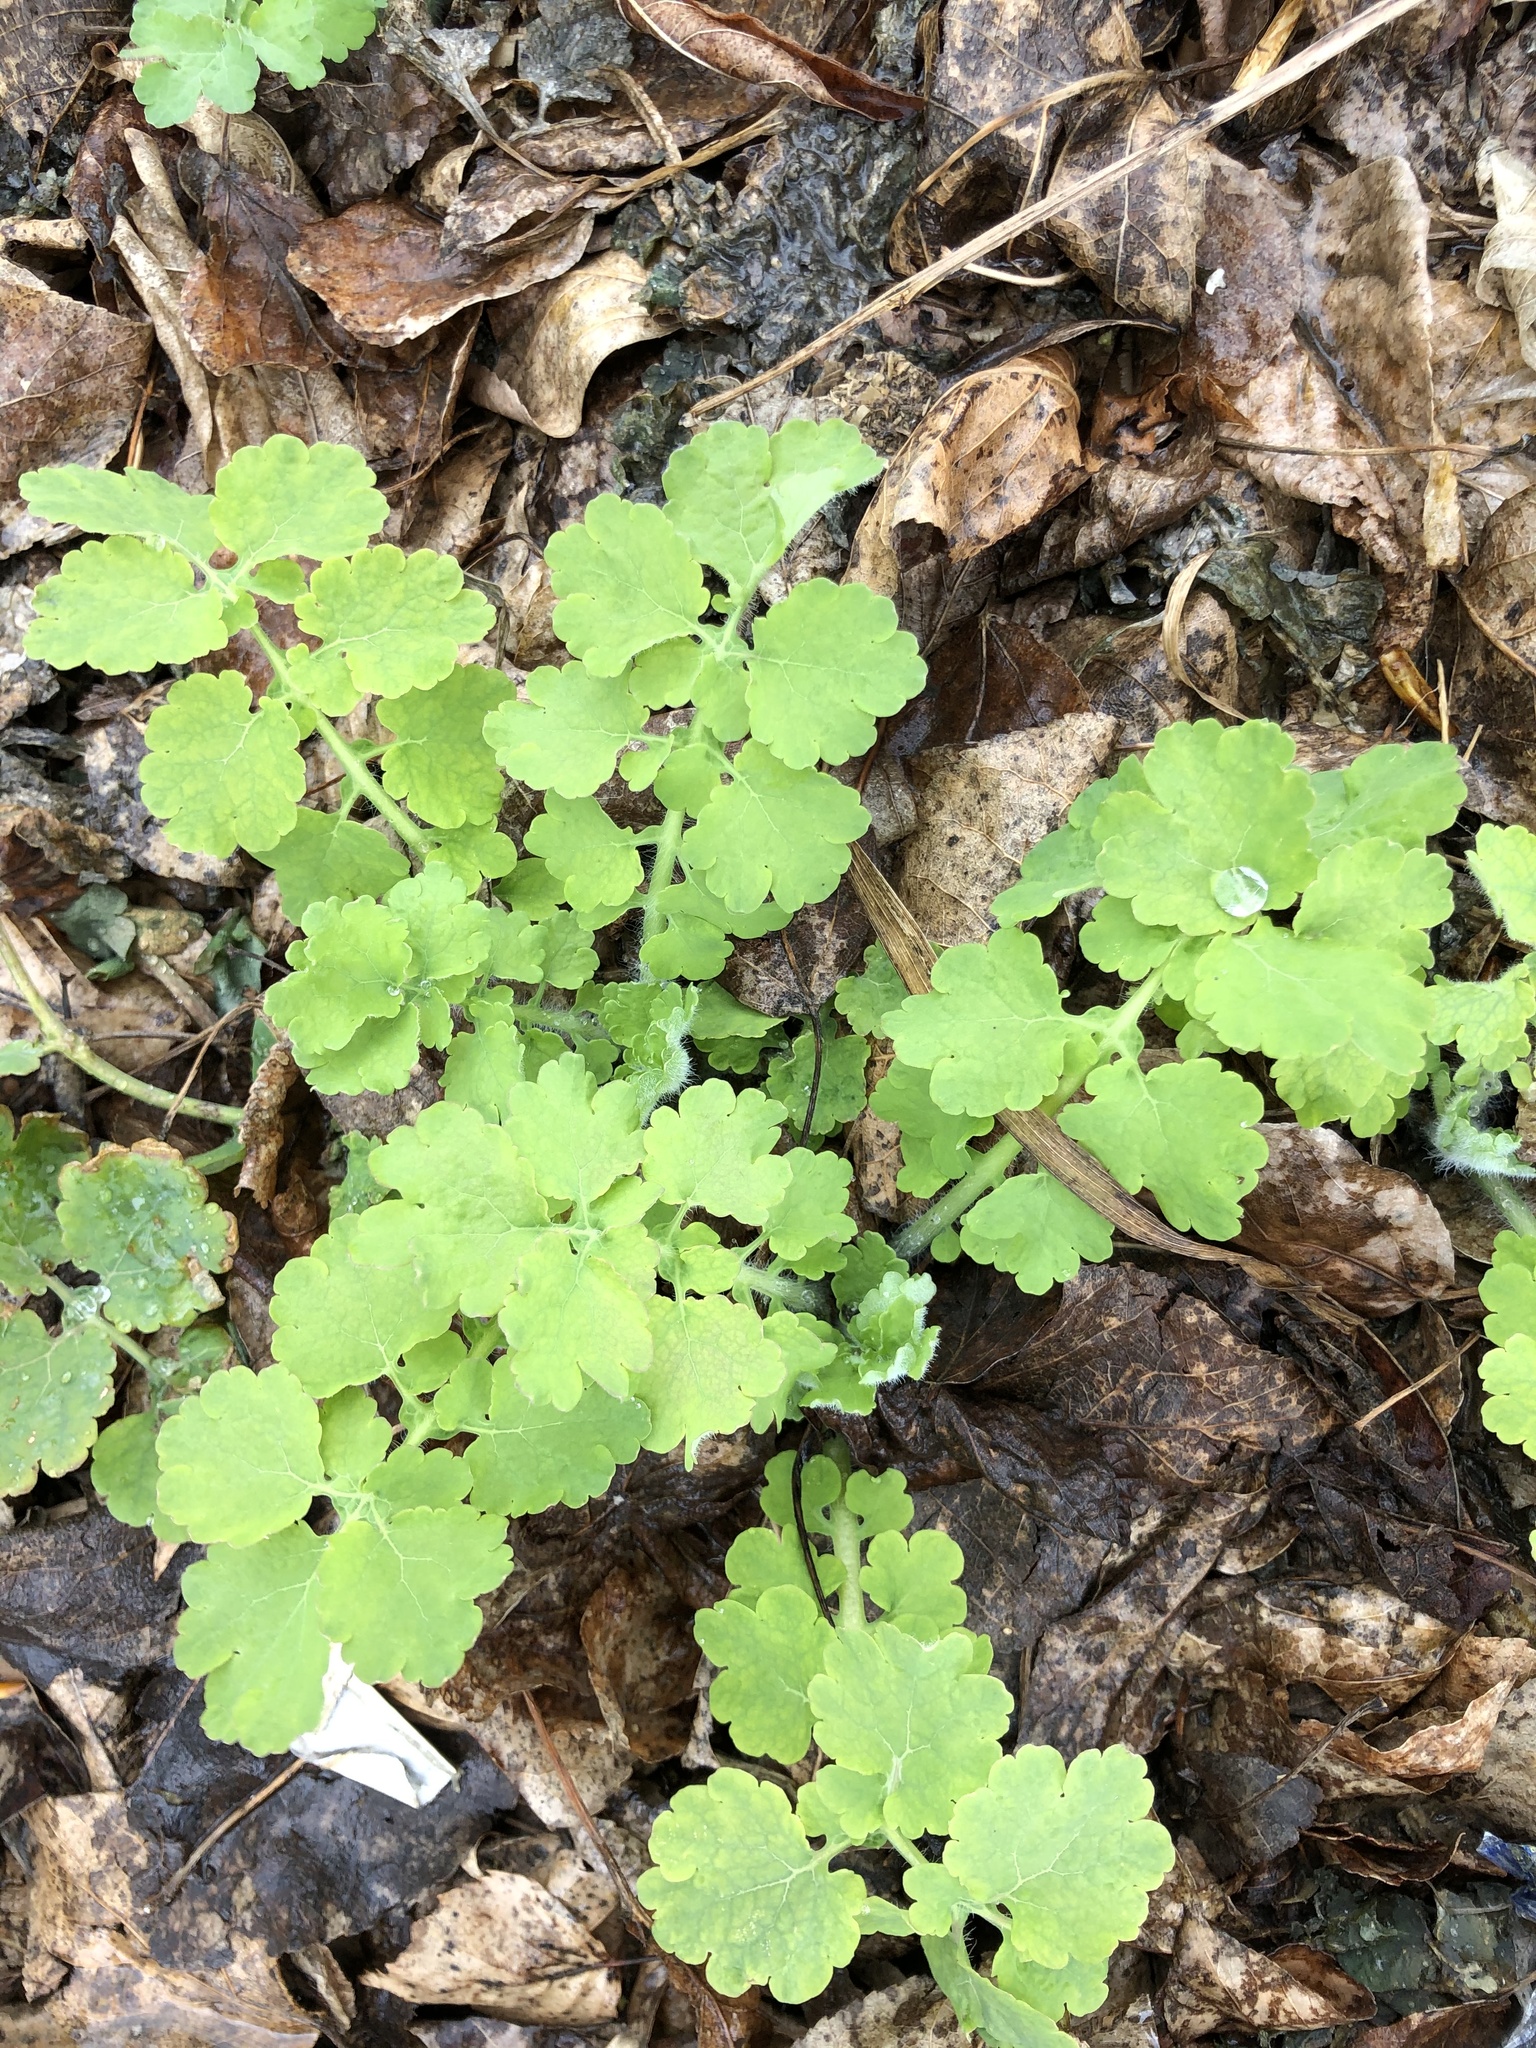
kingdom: Plantae
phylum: Tracheophyta
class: Magnoliopsida
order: Ranunculales
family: Papaveraceae
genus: Chelidonium
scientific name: Chelidonium majus
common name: Greater celandine
